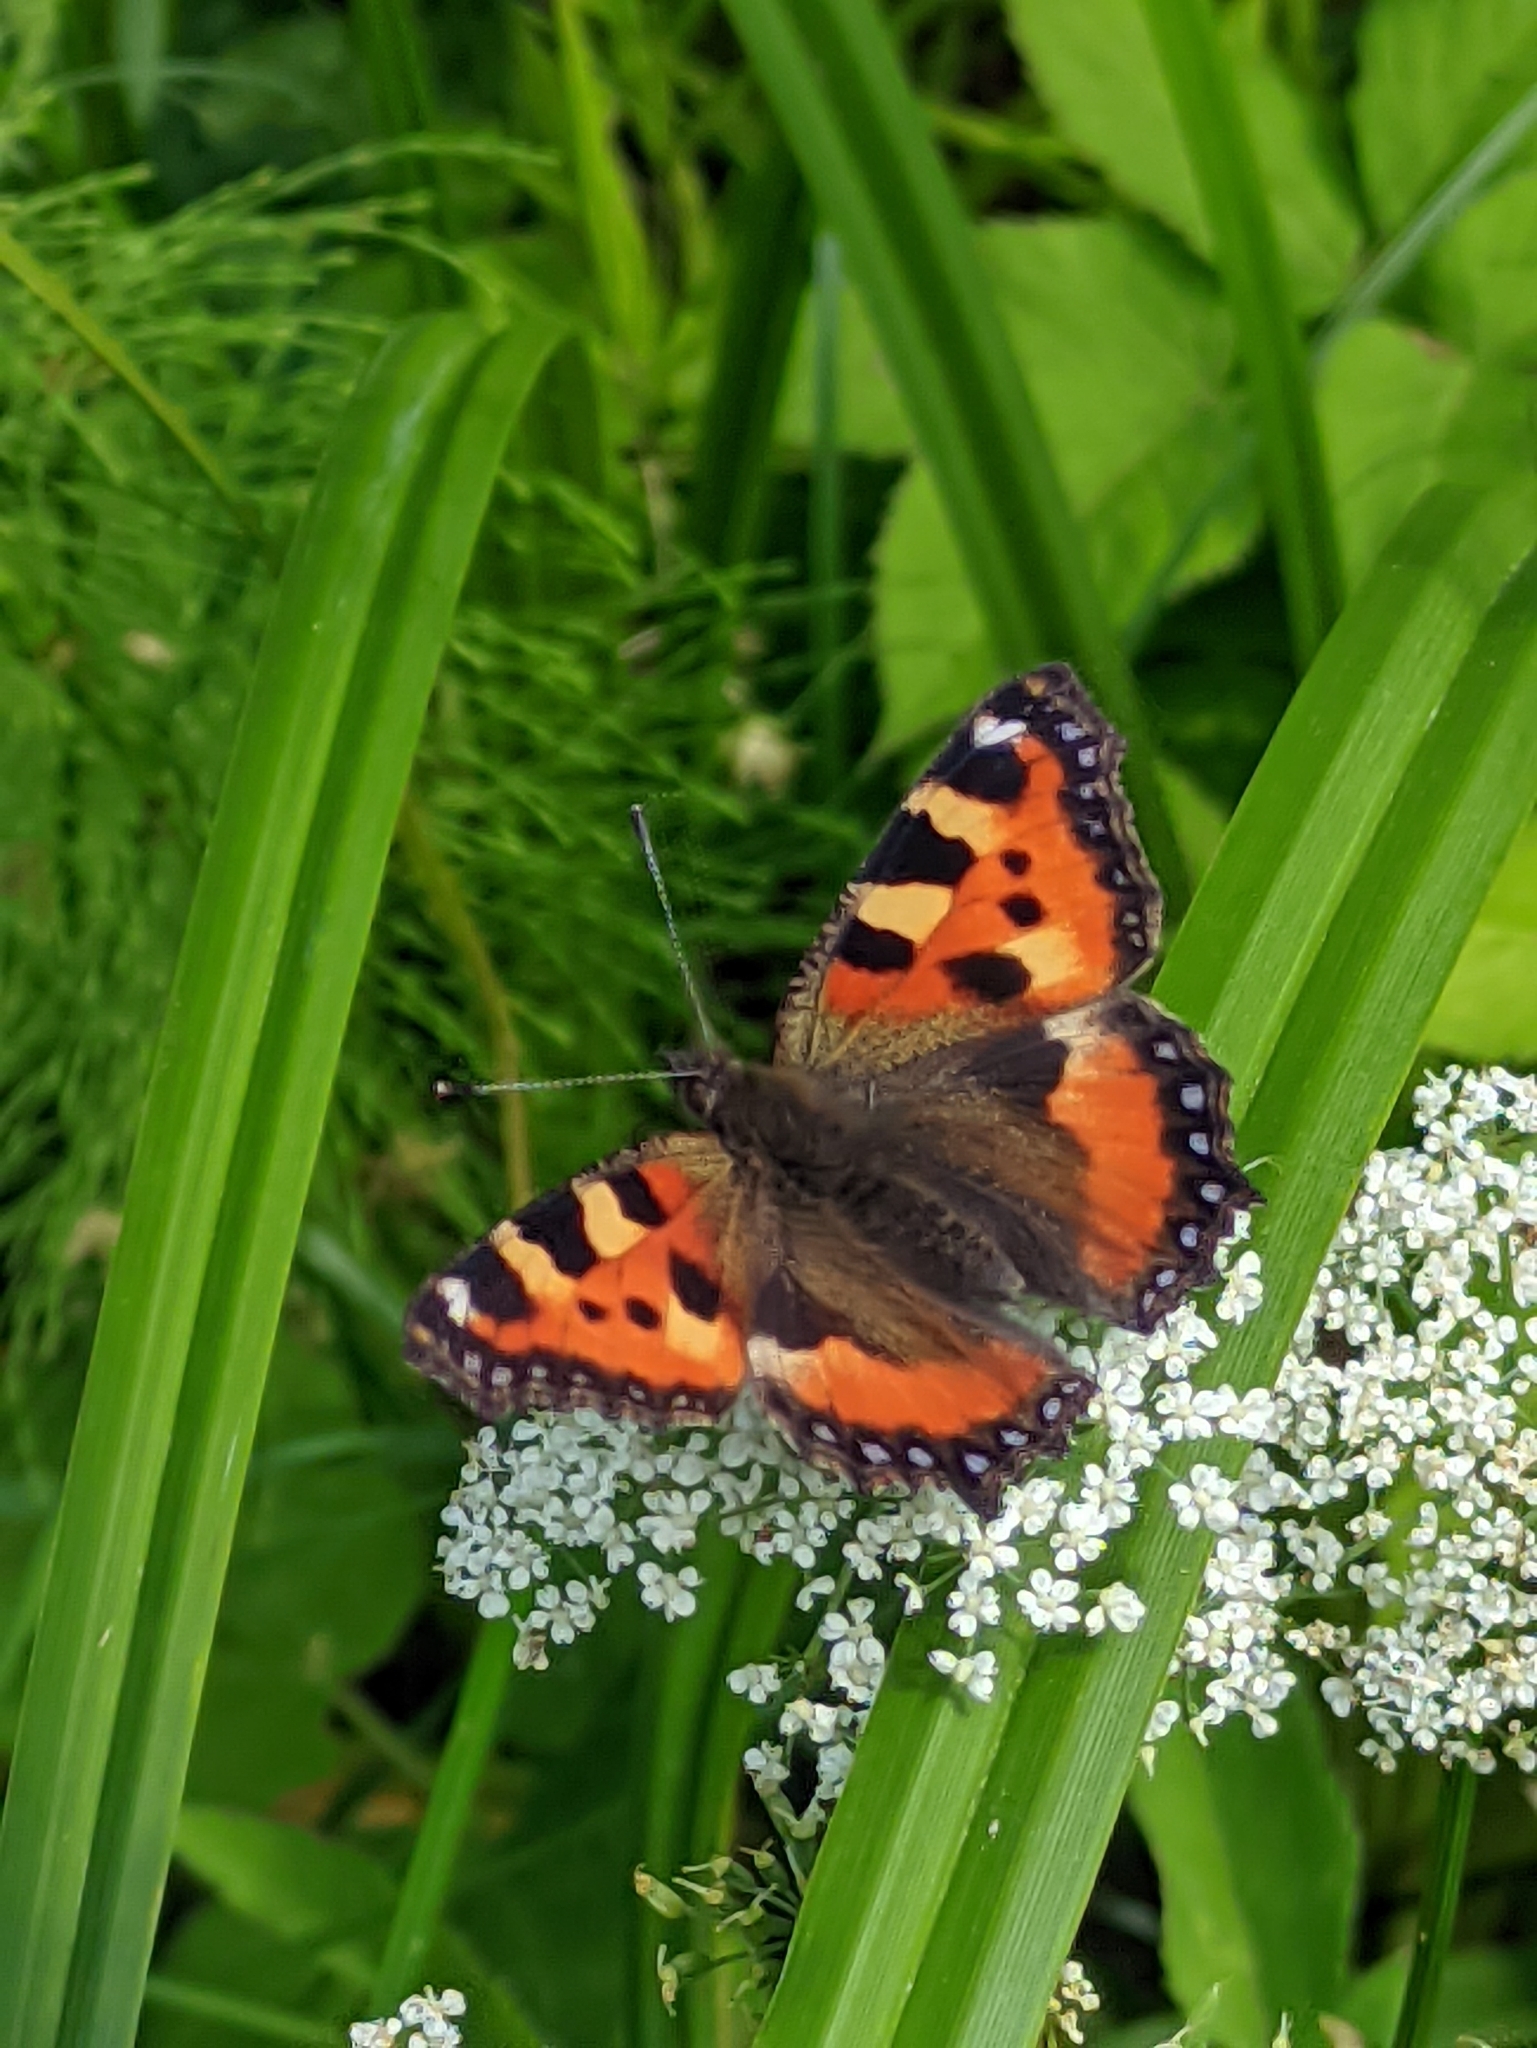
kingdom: Animalia
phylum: Arthropoda
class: Insecta
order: Lepidoptera
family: Nymphalidae
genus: Aglais
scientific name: Aglais urticae
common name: Small tortoiseshell
